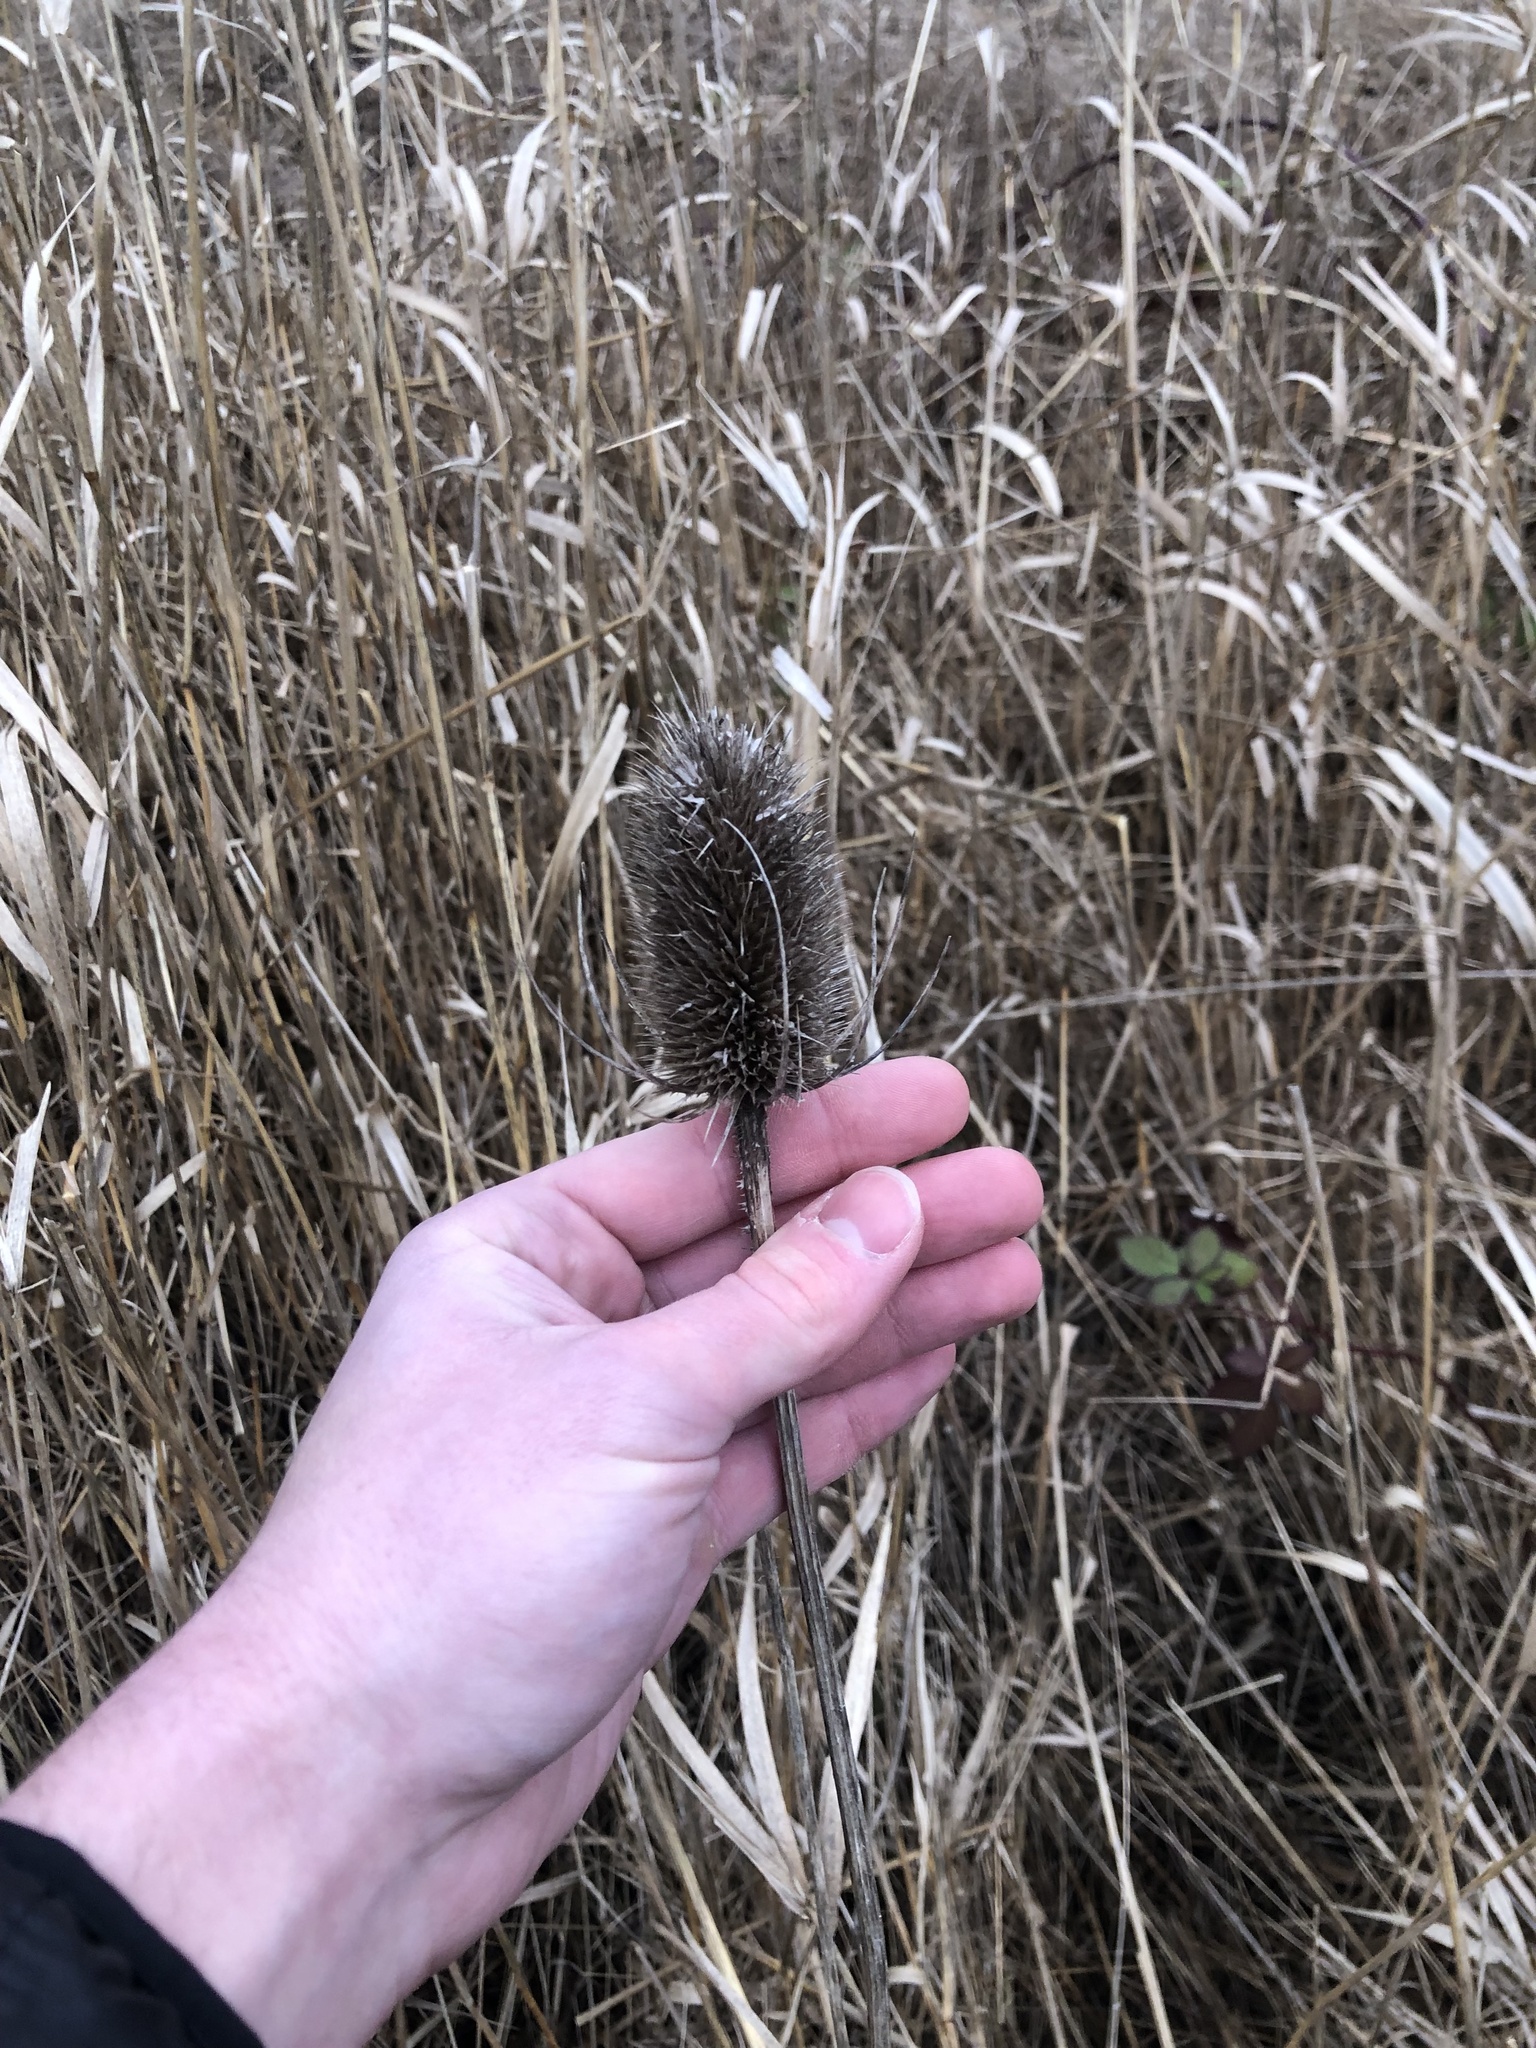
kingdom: Plantae
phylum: Tracheophyta
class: Magnoliopsida
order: Dipsacales
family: Caprifoliaceae
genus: Dipsacus
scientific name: Dipsacus fullonum
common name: Teasel
